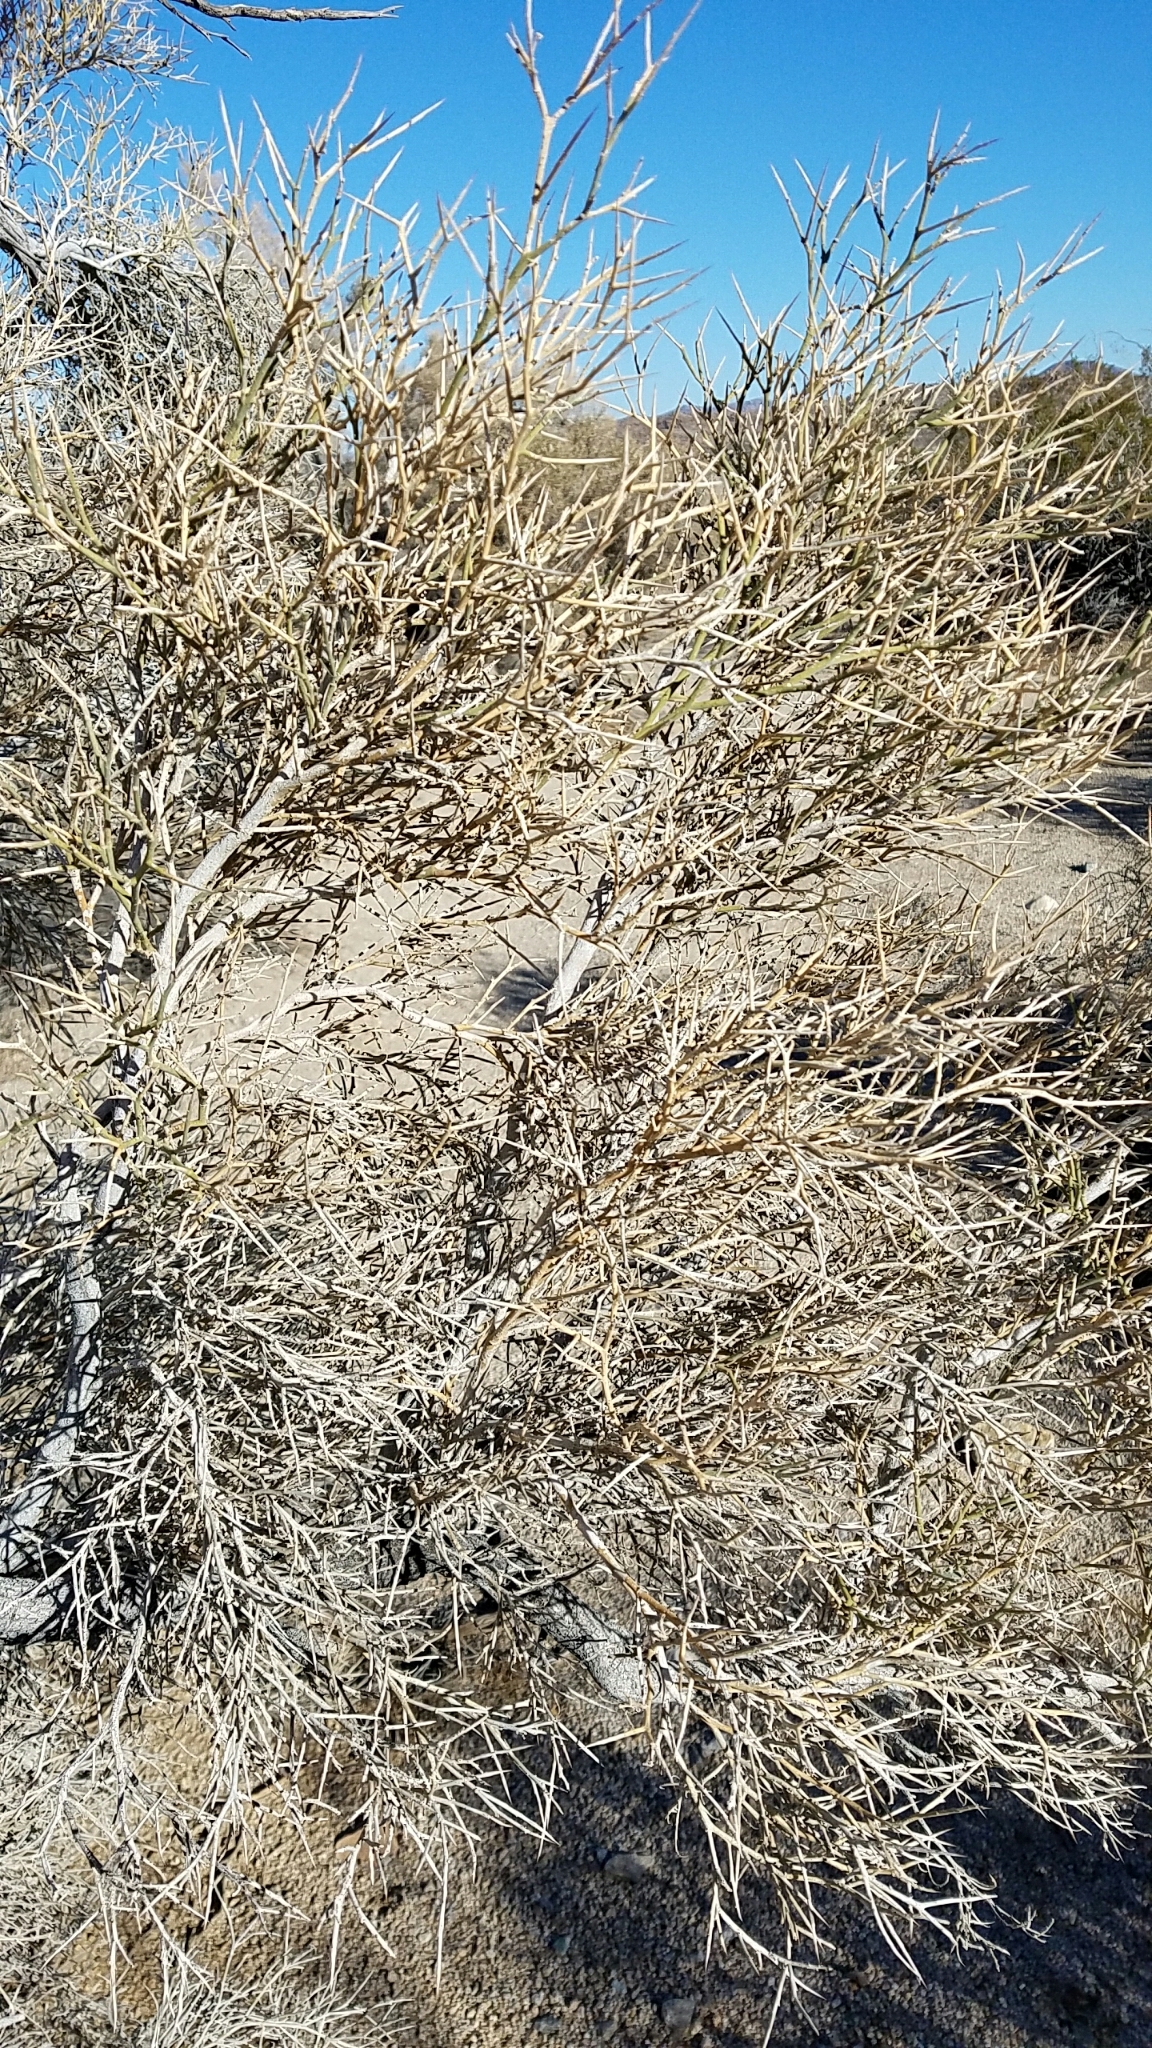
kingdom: Plantae
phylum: Tracheophyta
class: Magnoliopsida
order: Fabales
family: Fabaceae
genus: Psorothamnus
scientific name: Psorothamnus spinosus
